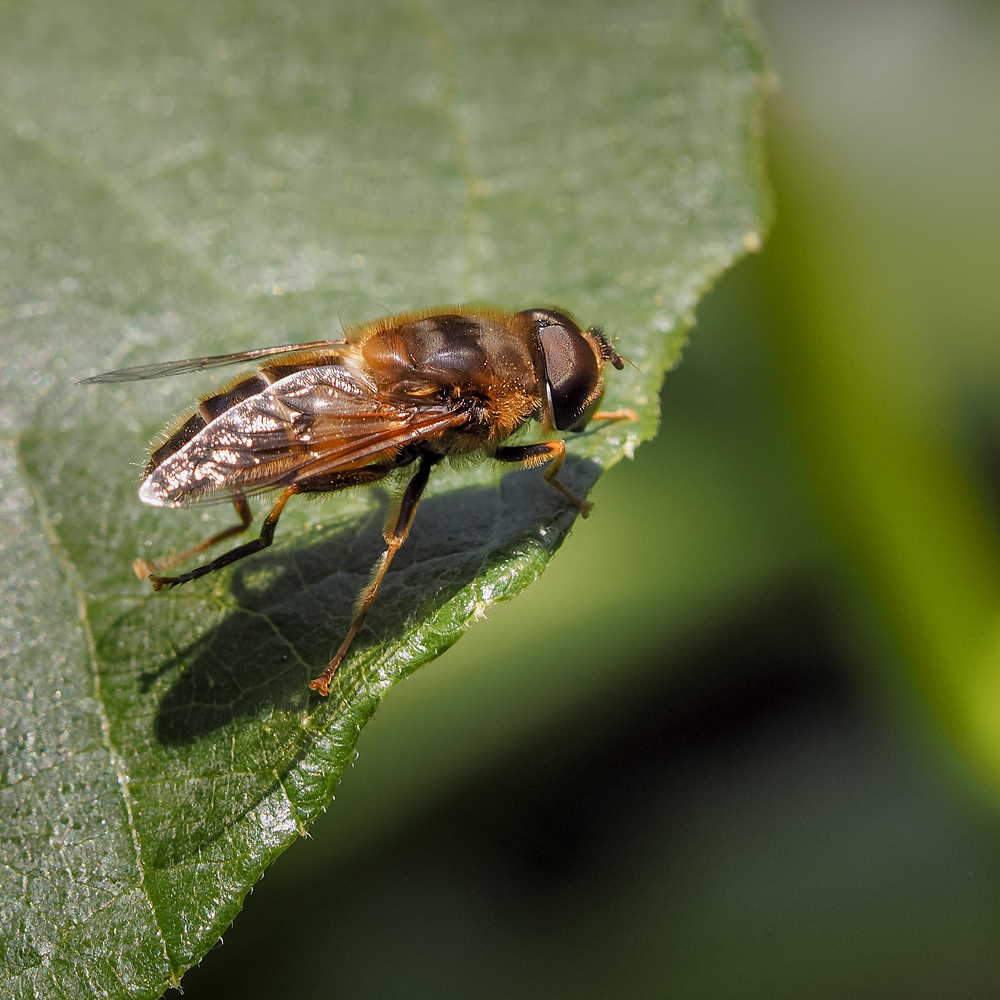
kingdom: Animalia
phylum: Arthropoda
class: Insecta
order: Diptera
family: Syrphidae
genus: Eristalis
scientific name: Eristalis pertinax
